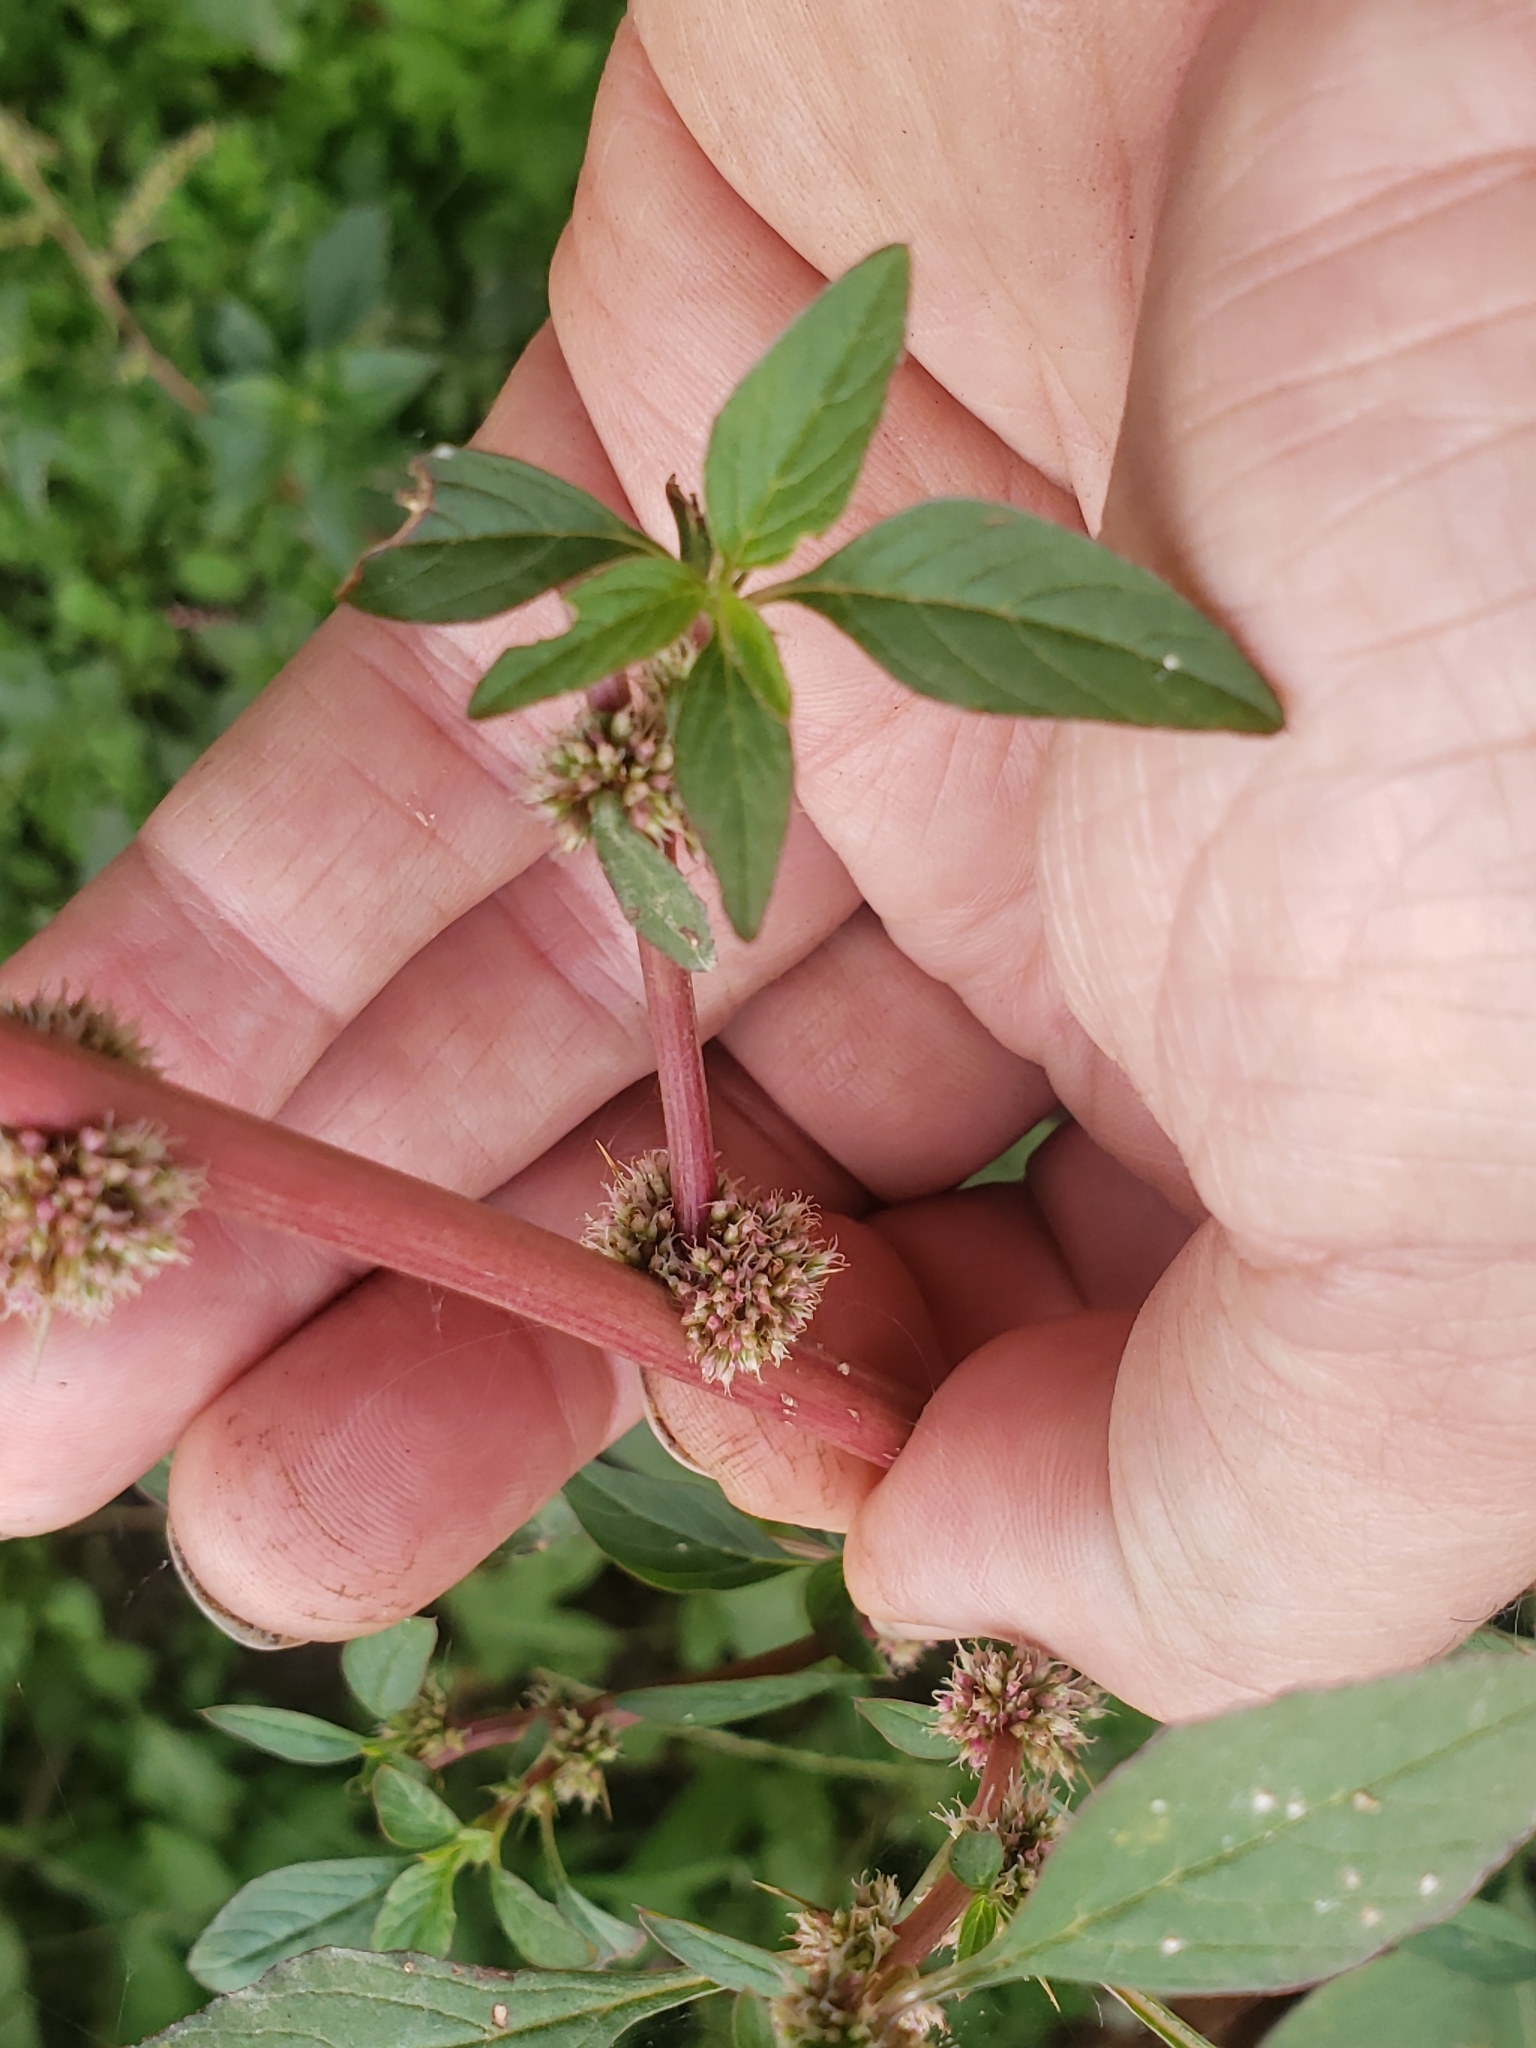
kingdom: Plantae
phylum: Tracheophyta
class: Magnoliopsida
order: Caryophyllales
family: Amaranthaceae
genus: Amaranthus
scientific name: Amaranthus retroflexus
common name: Redroot amaranth
